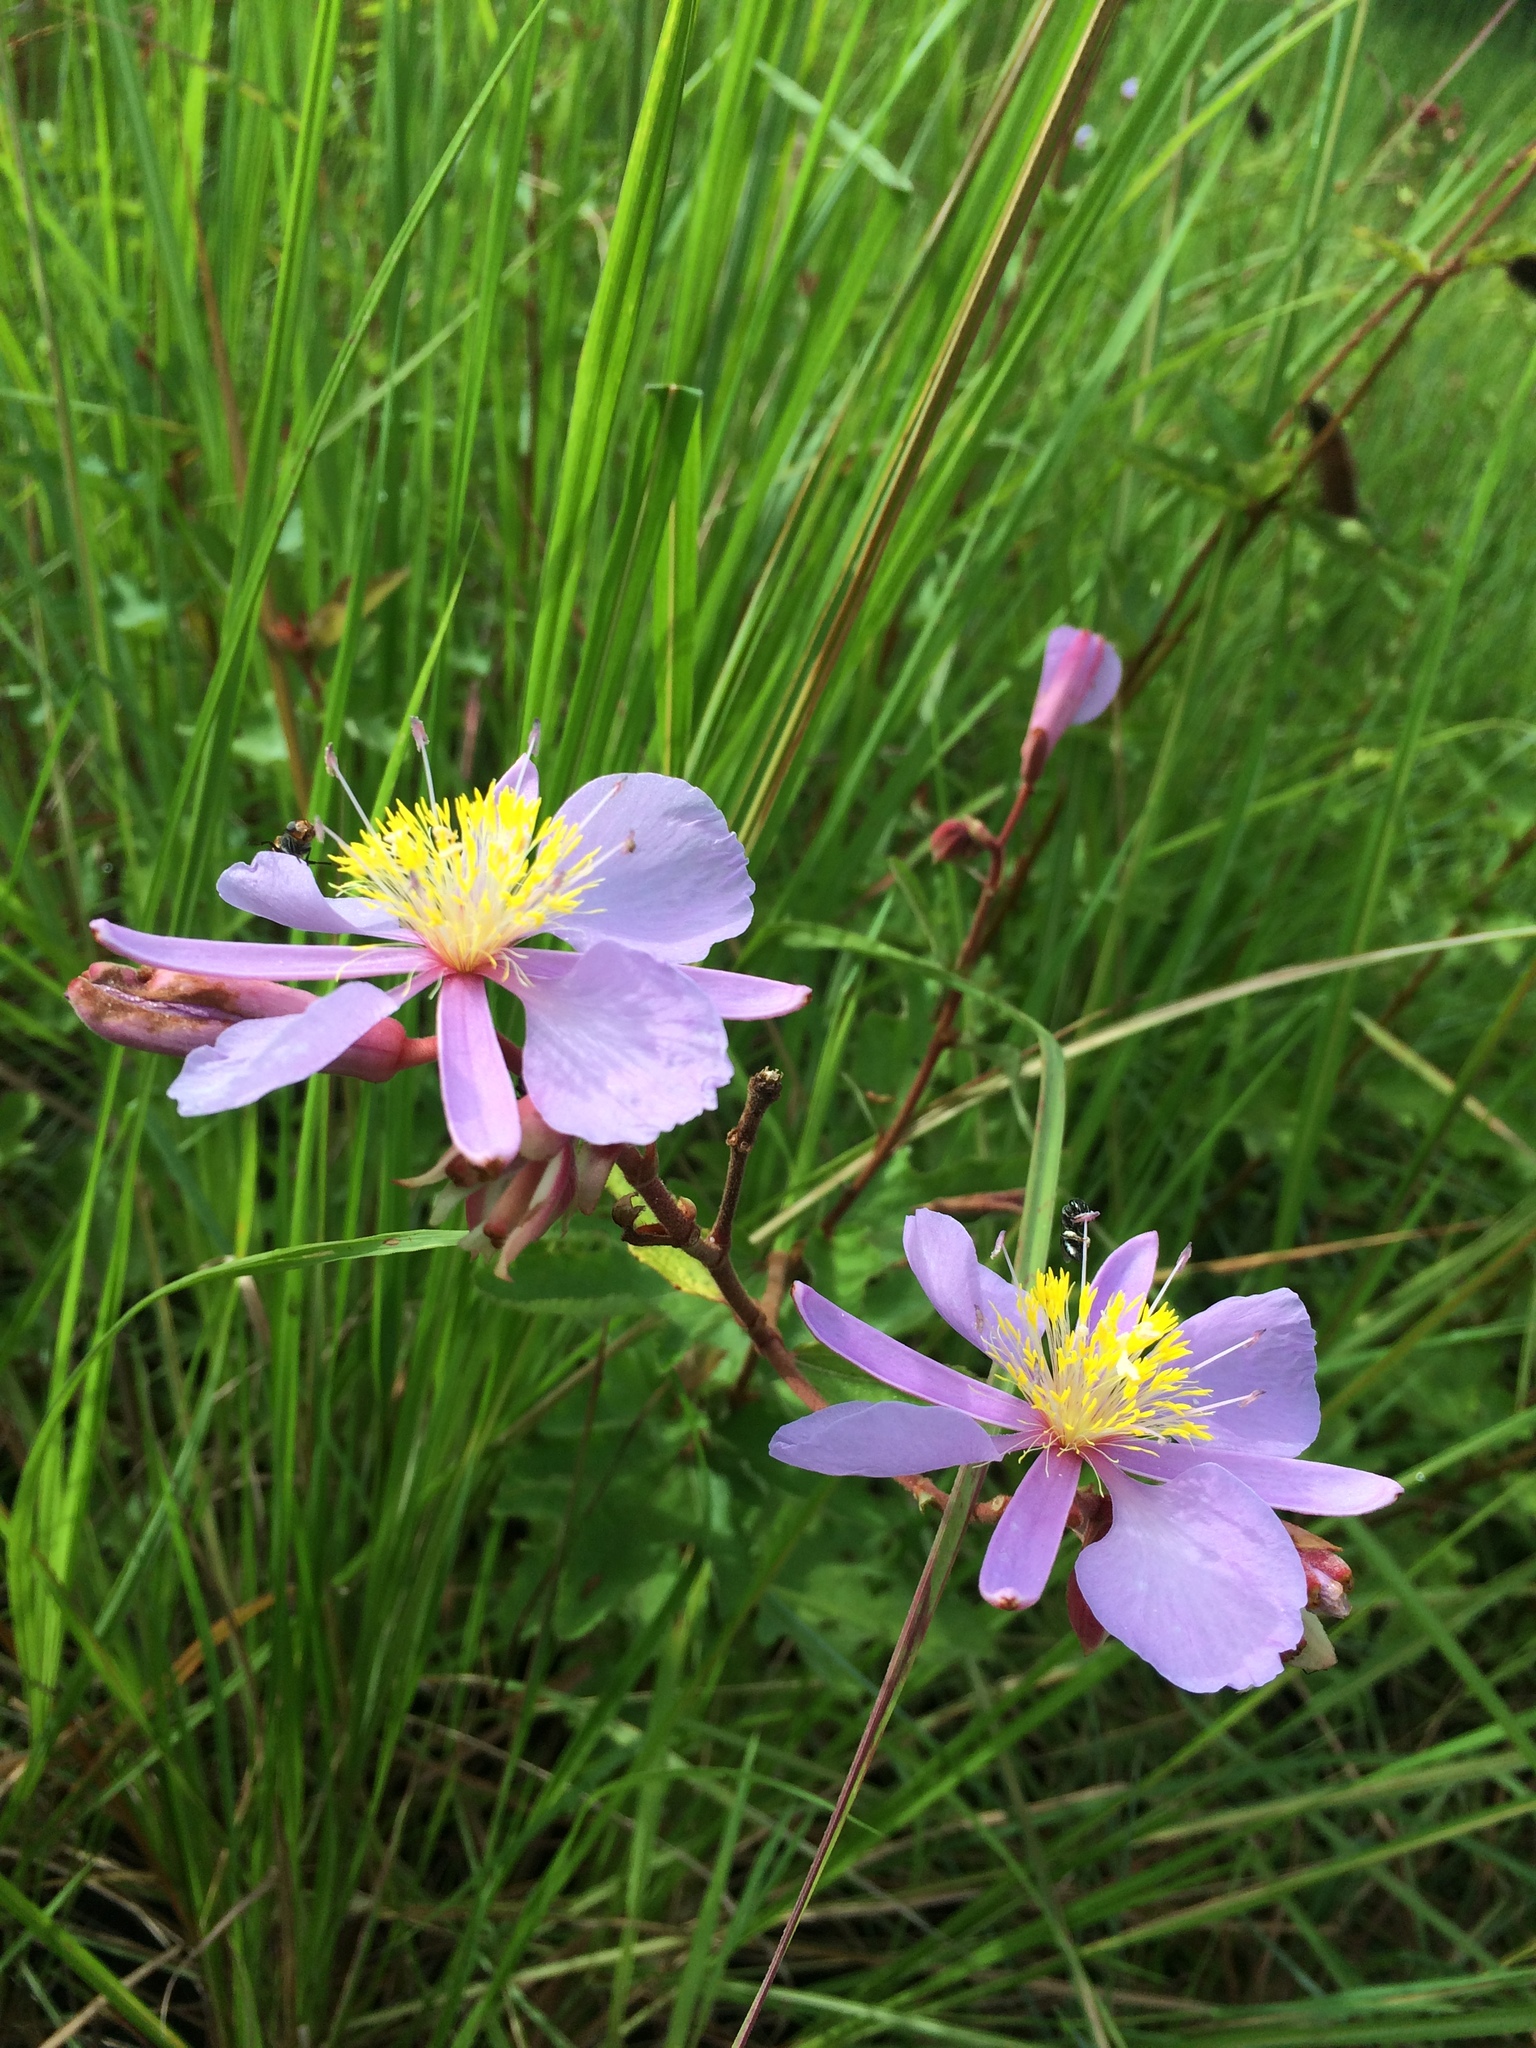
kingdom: Plantae
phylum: Tracheophyta
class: Magnoliopsida
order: Malvales
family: Malvaceae
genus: Clappertonia
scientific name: Clappertonia ficifolia
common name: Bolo-bolo
